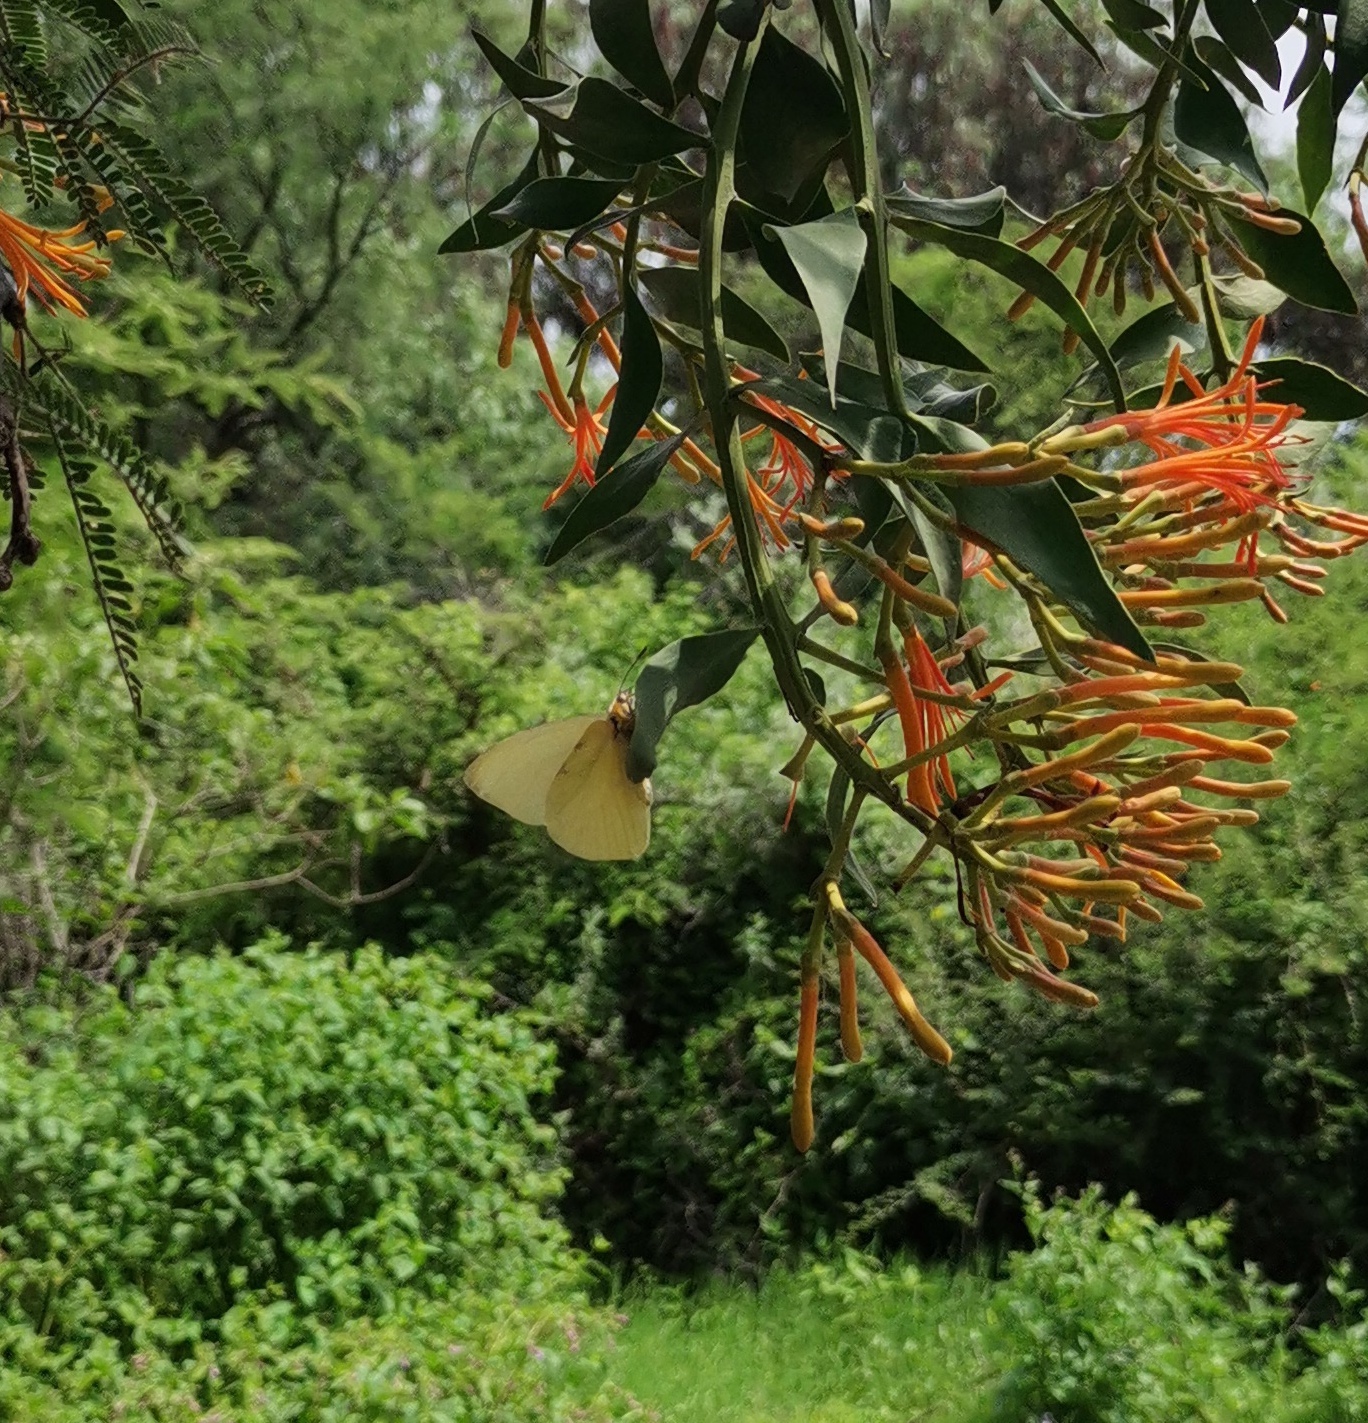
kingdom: Plantae
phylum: Tracheophyta
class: Magnoliopsida
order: Santalales
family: Loranthaceae
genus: Psittacanthus
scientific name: Psittacanthus calyculatus
